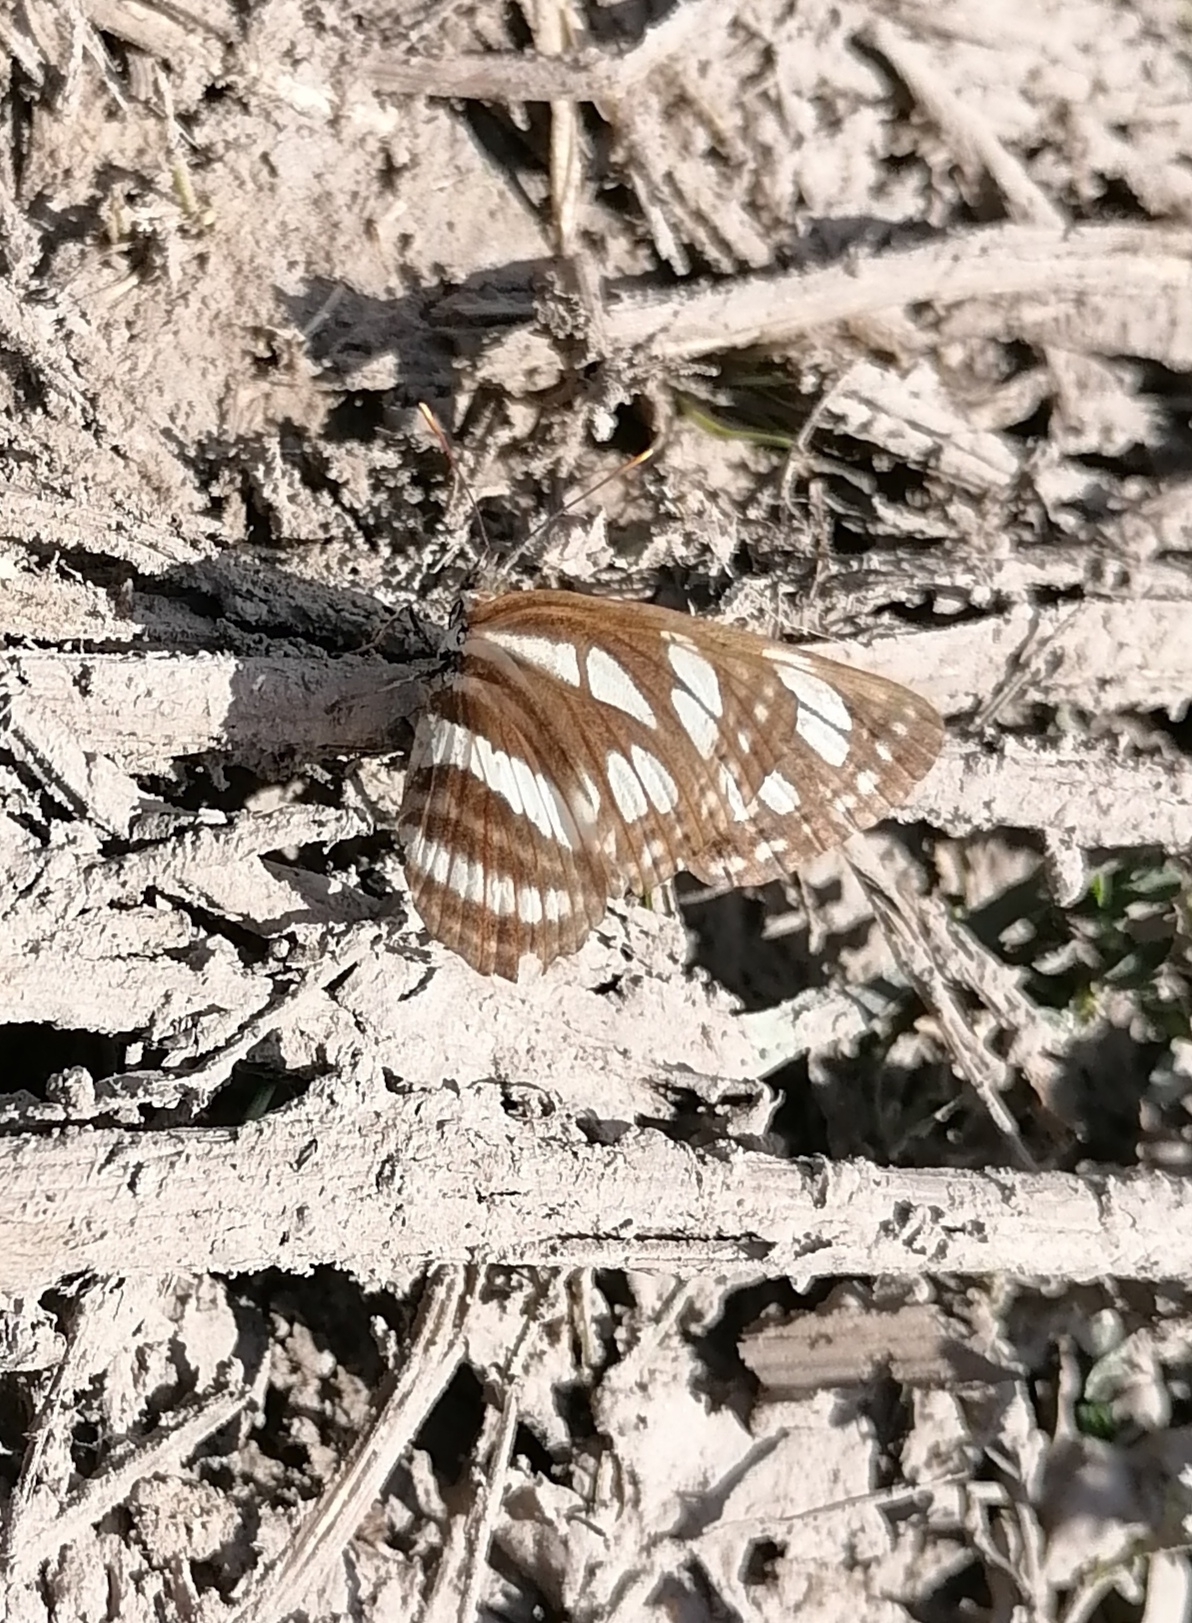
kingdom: Animalia
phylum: Arthropoda
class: Insecta
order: Lepidoptera
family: Nymphalidae
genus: Neptis
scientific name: Neptis sappho
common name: Common glider
